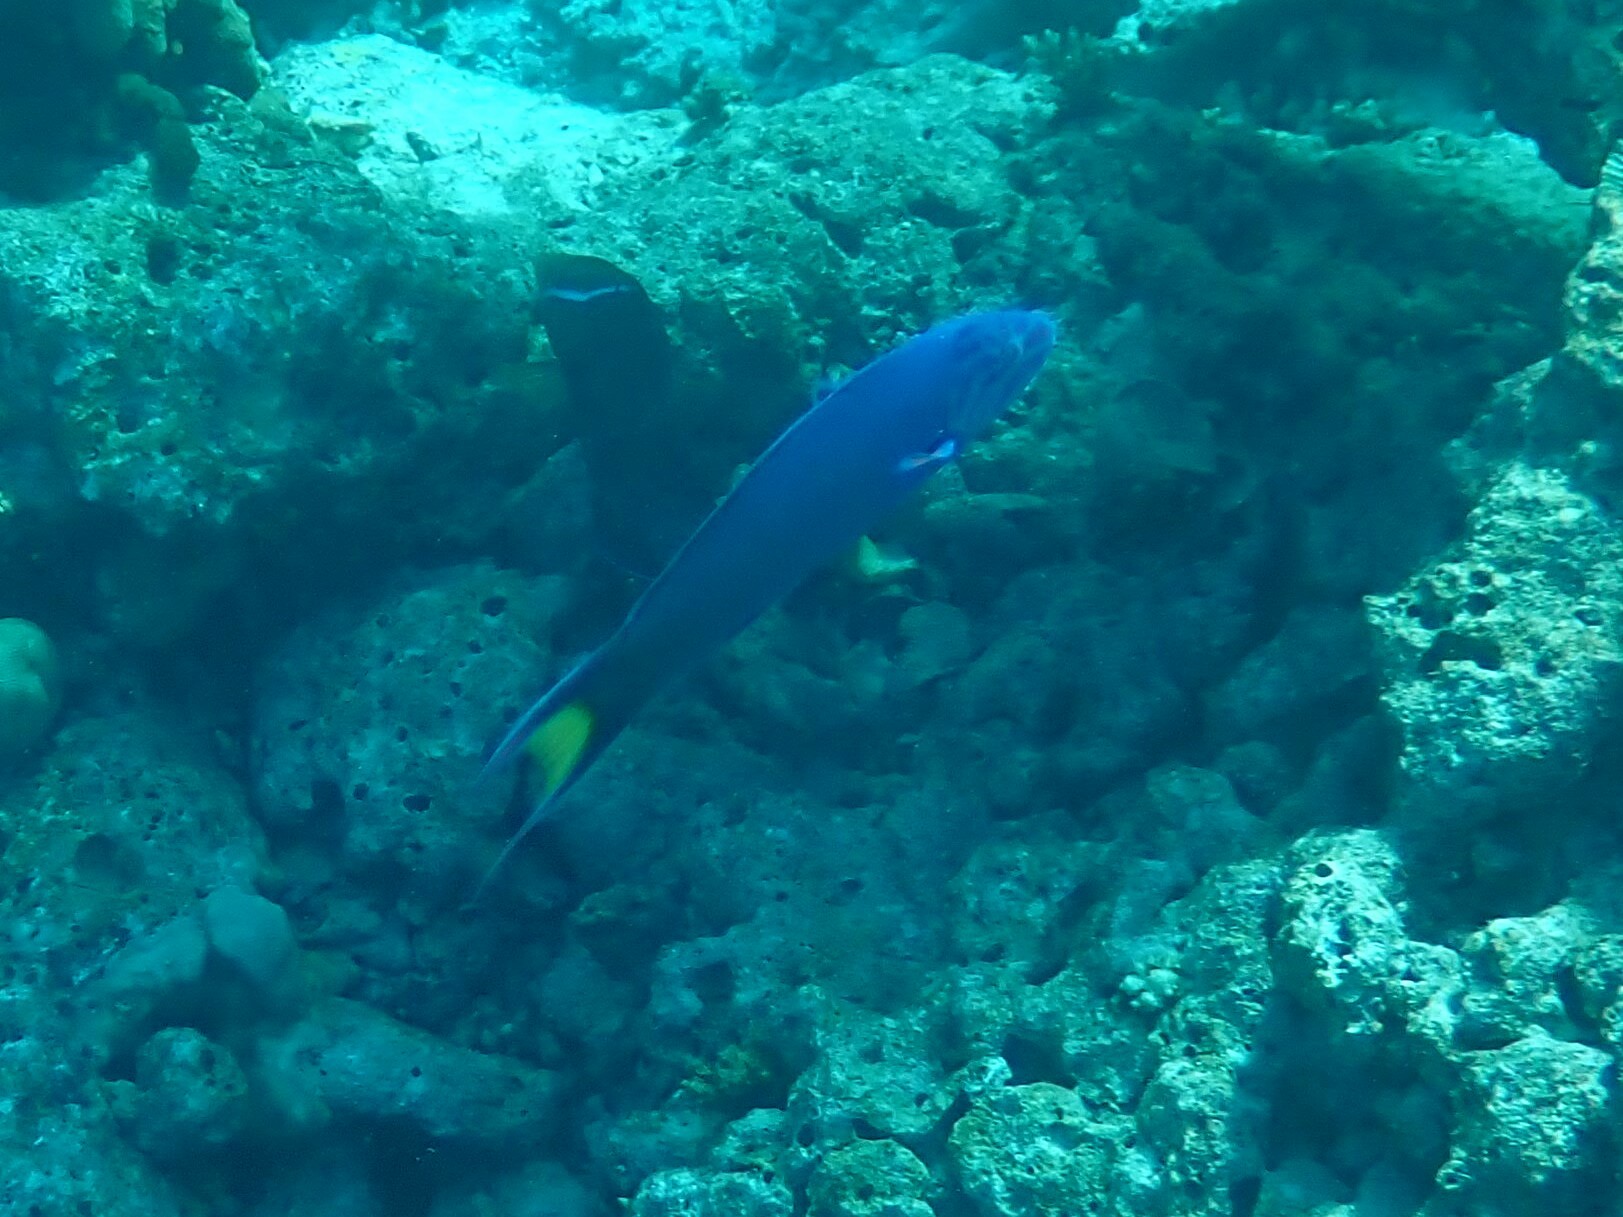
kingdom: Animalia
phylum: Chordata
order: Perciformes
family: Labridae
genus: Thalassoma
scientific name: Thalassoma lunare
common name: Blue wrasse
